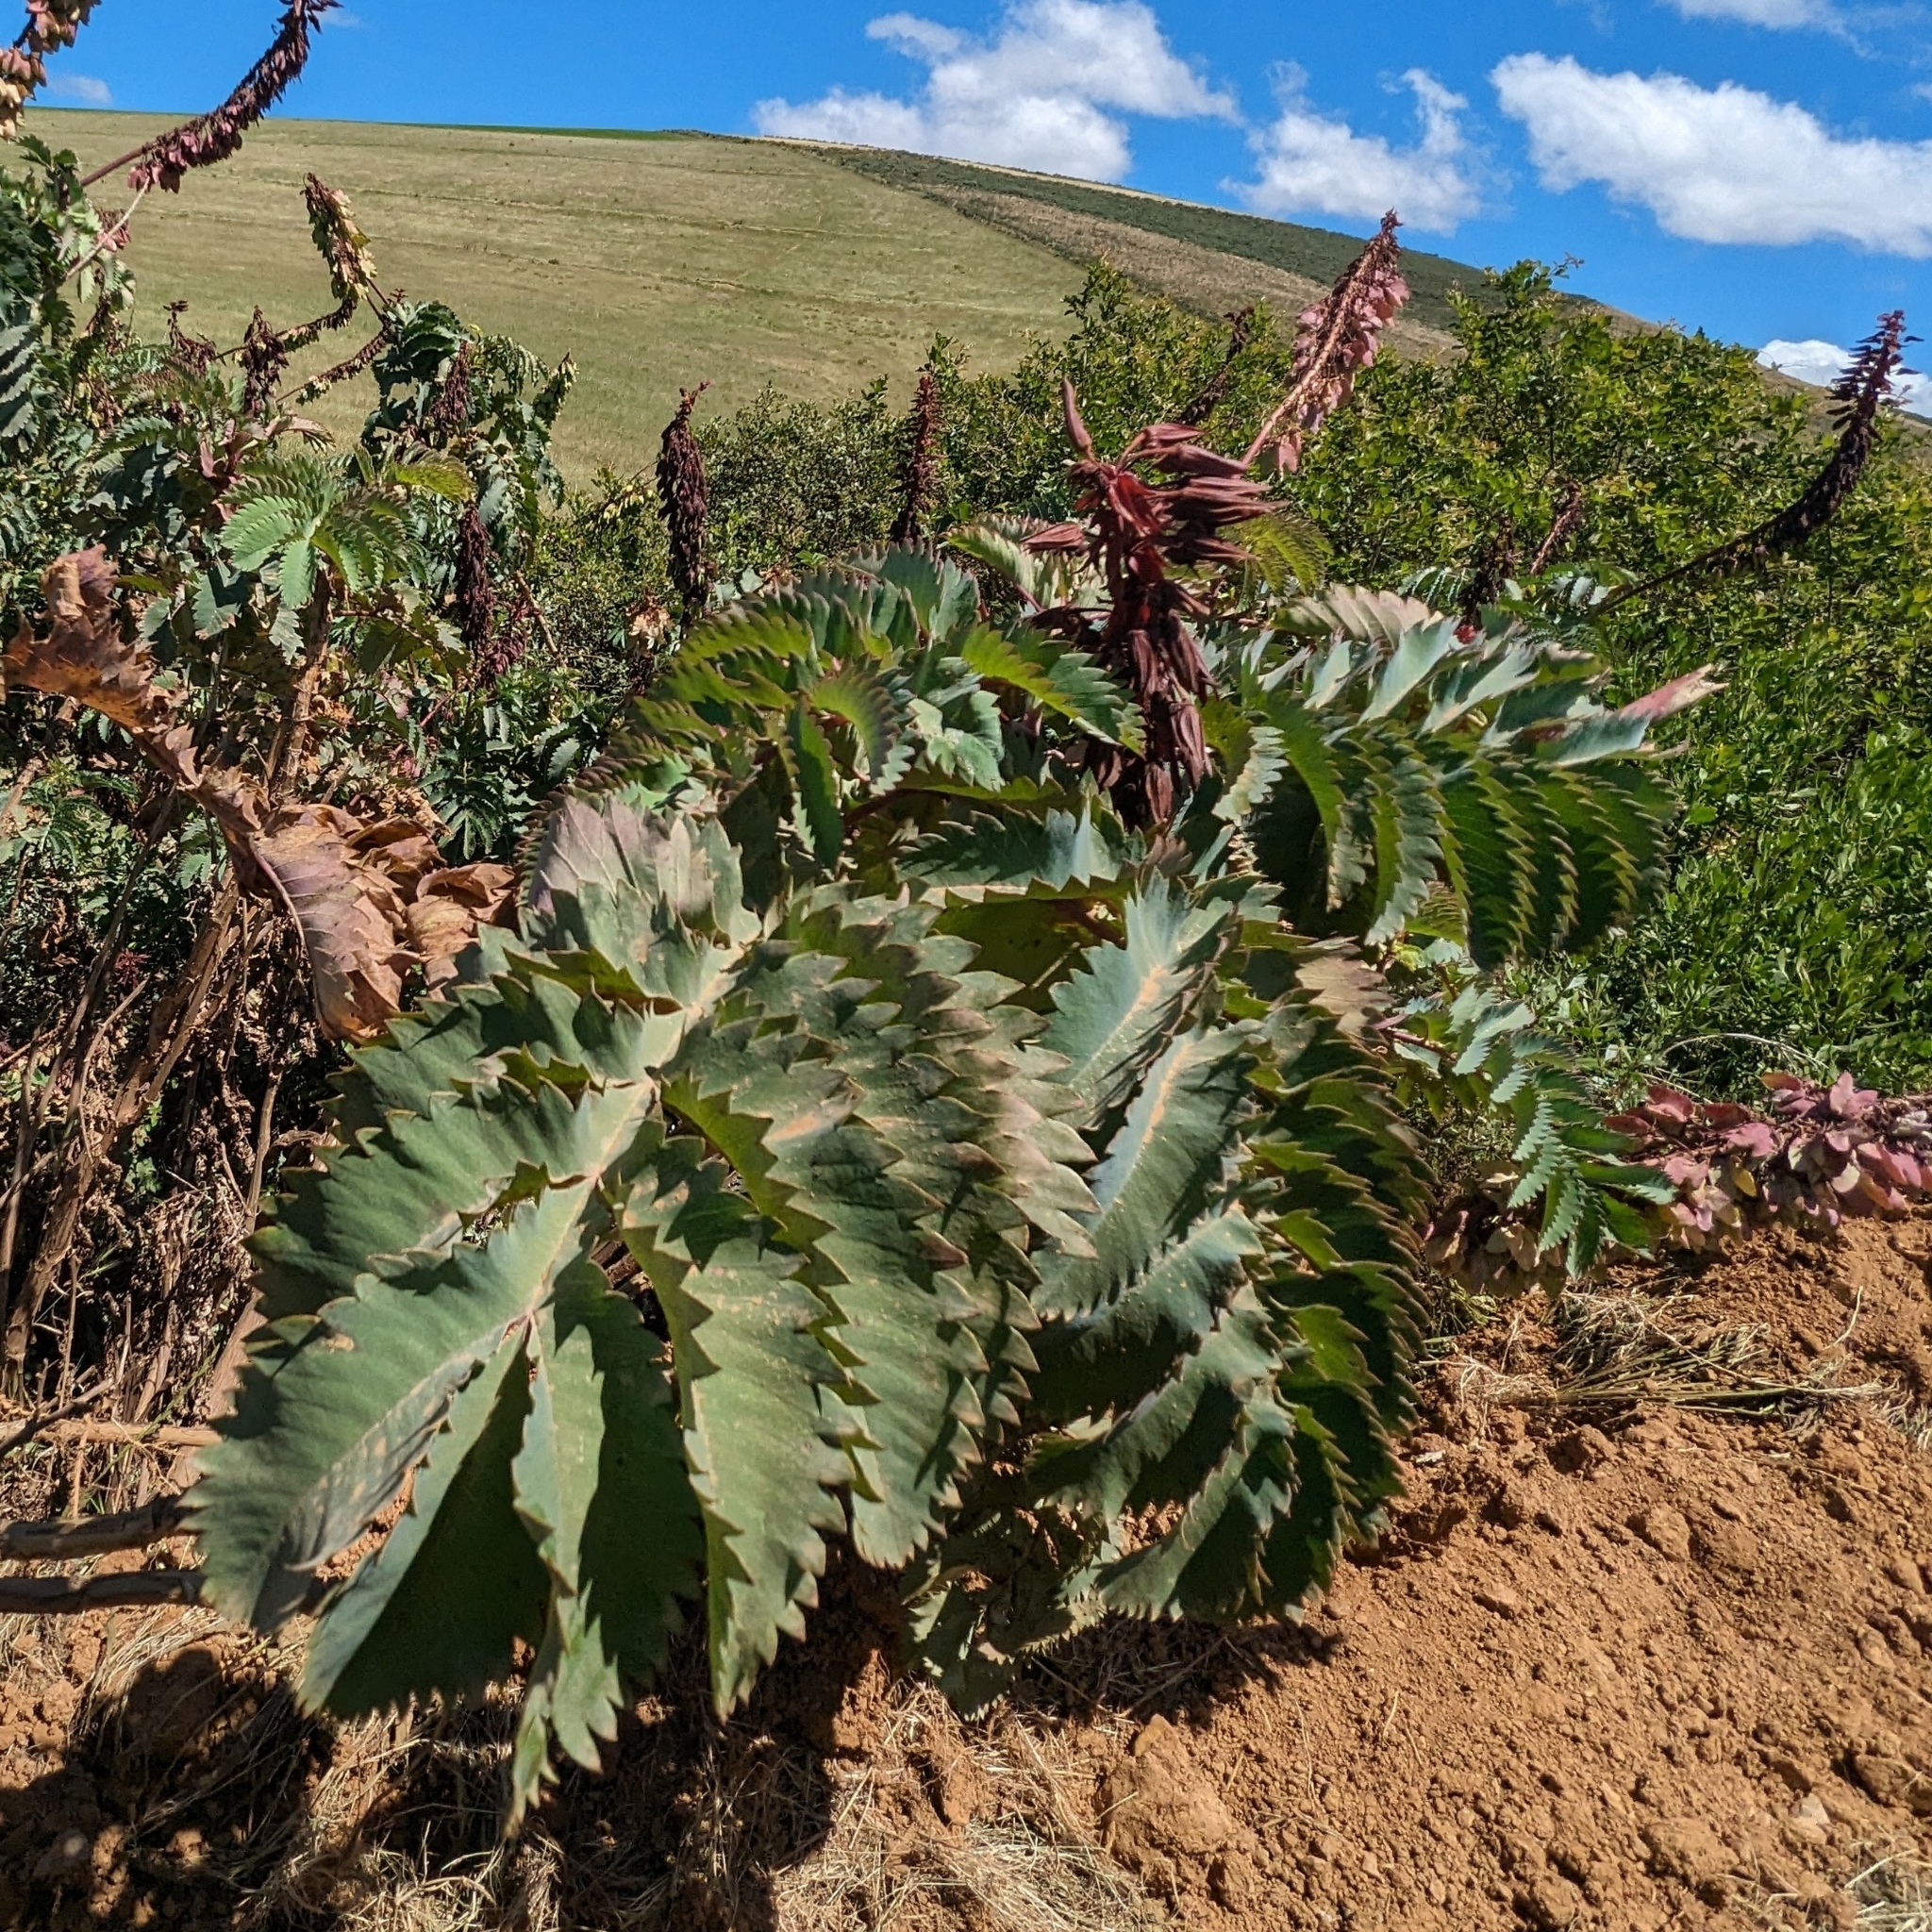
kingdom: Plantae
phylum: Tracheophyta
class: Magnoliopsida
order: Geraniales
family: Melianthaceae
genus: Melianthus
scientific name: Melianthus major
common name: Honey-flower
